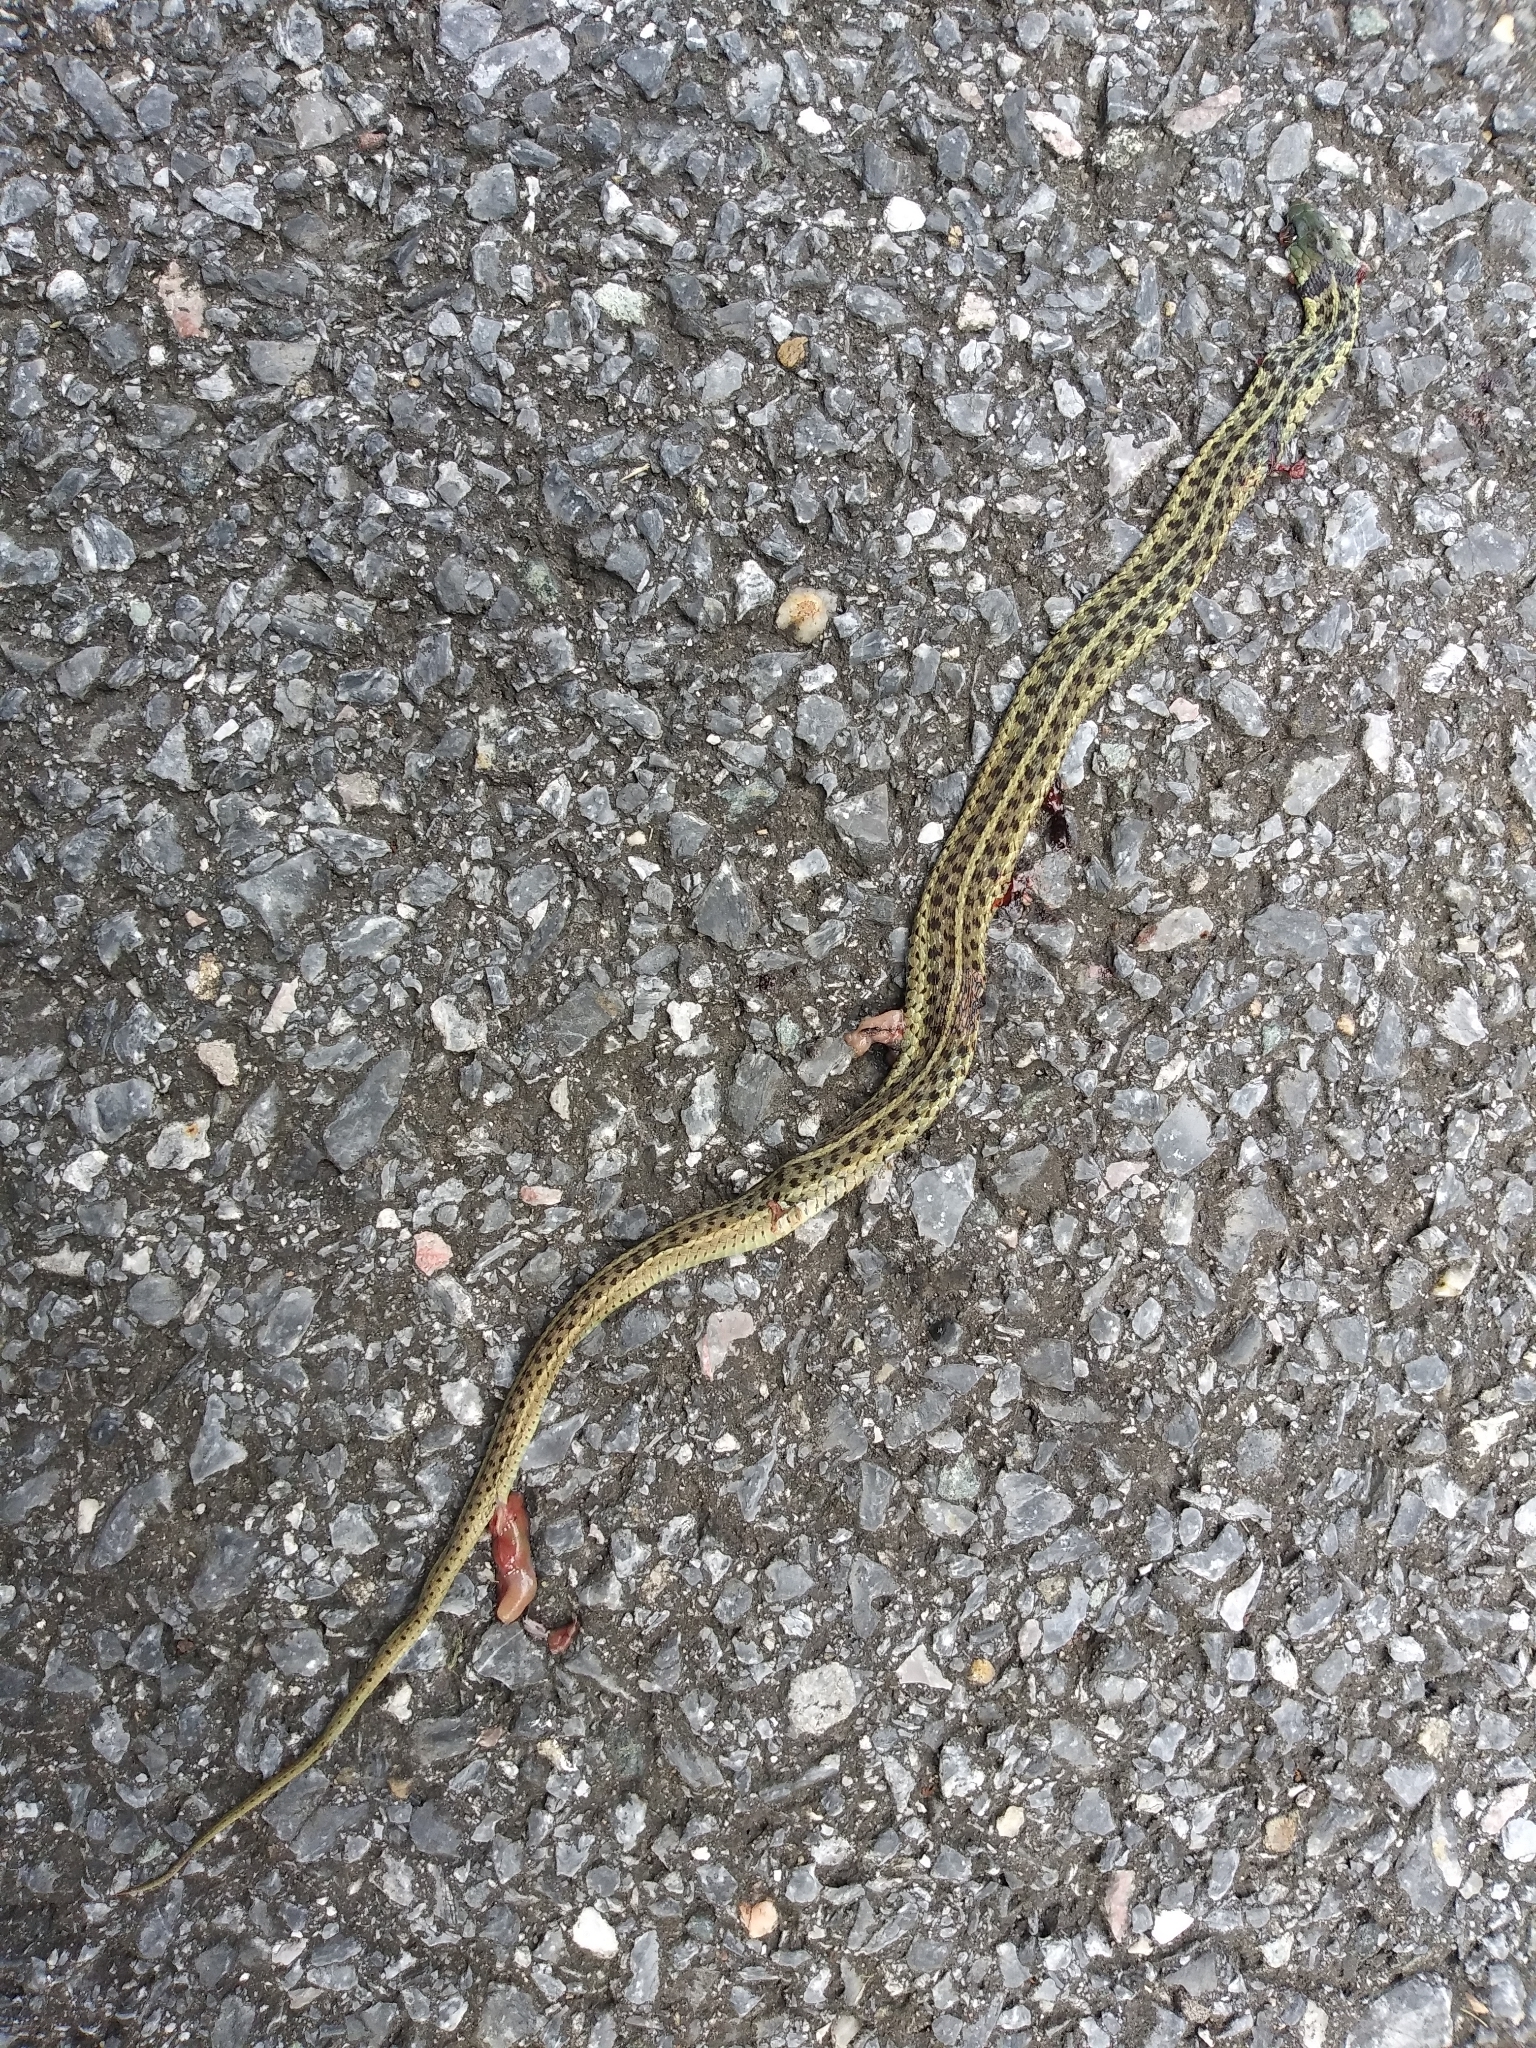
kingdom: Animalia
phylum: Chordata
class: Squamata
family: Colubridae
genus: Thamnophis
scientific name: Thamnophis sirtalis
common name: Common garter snake
